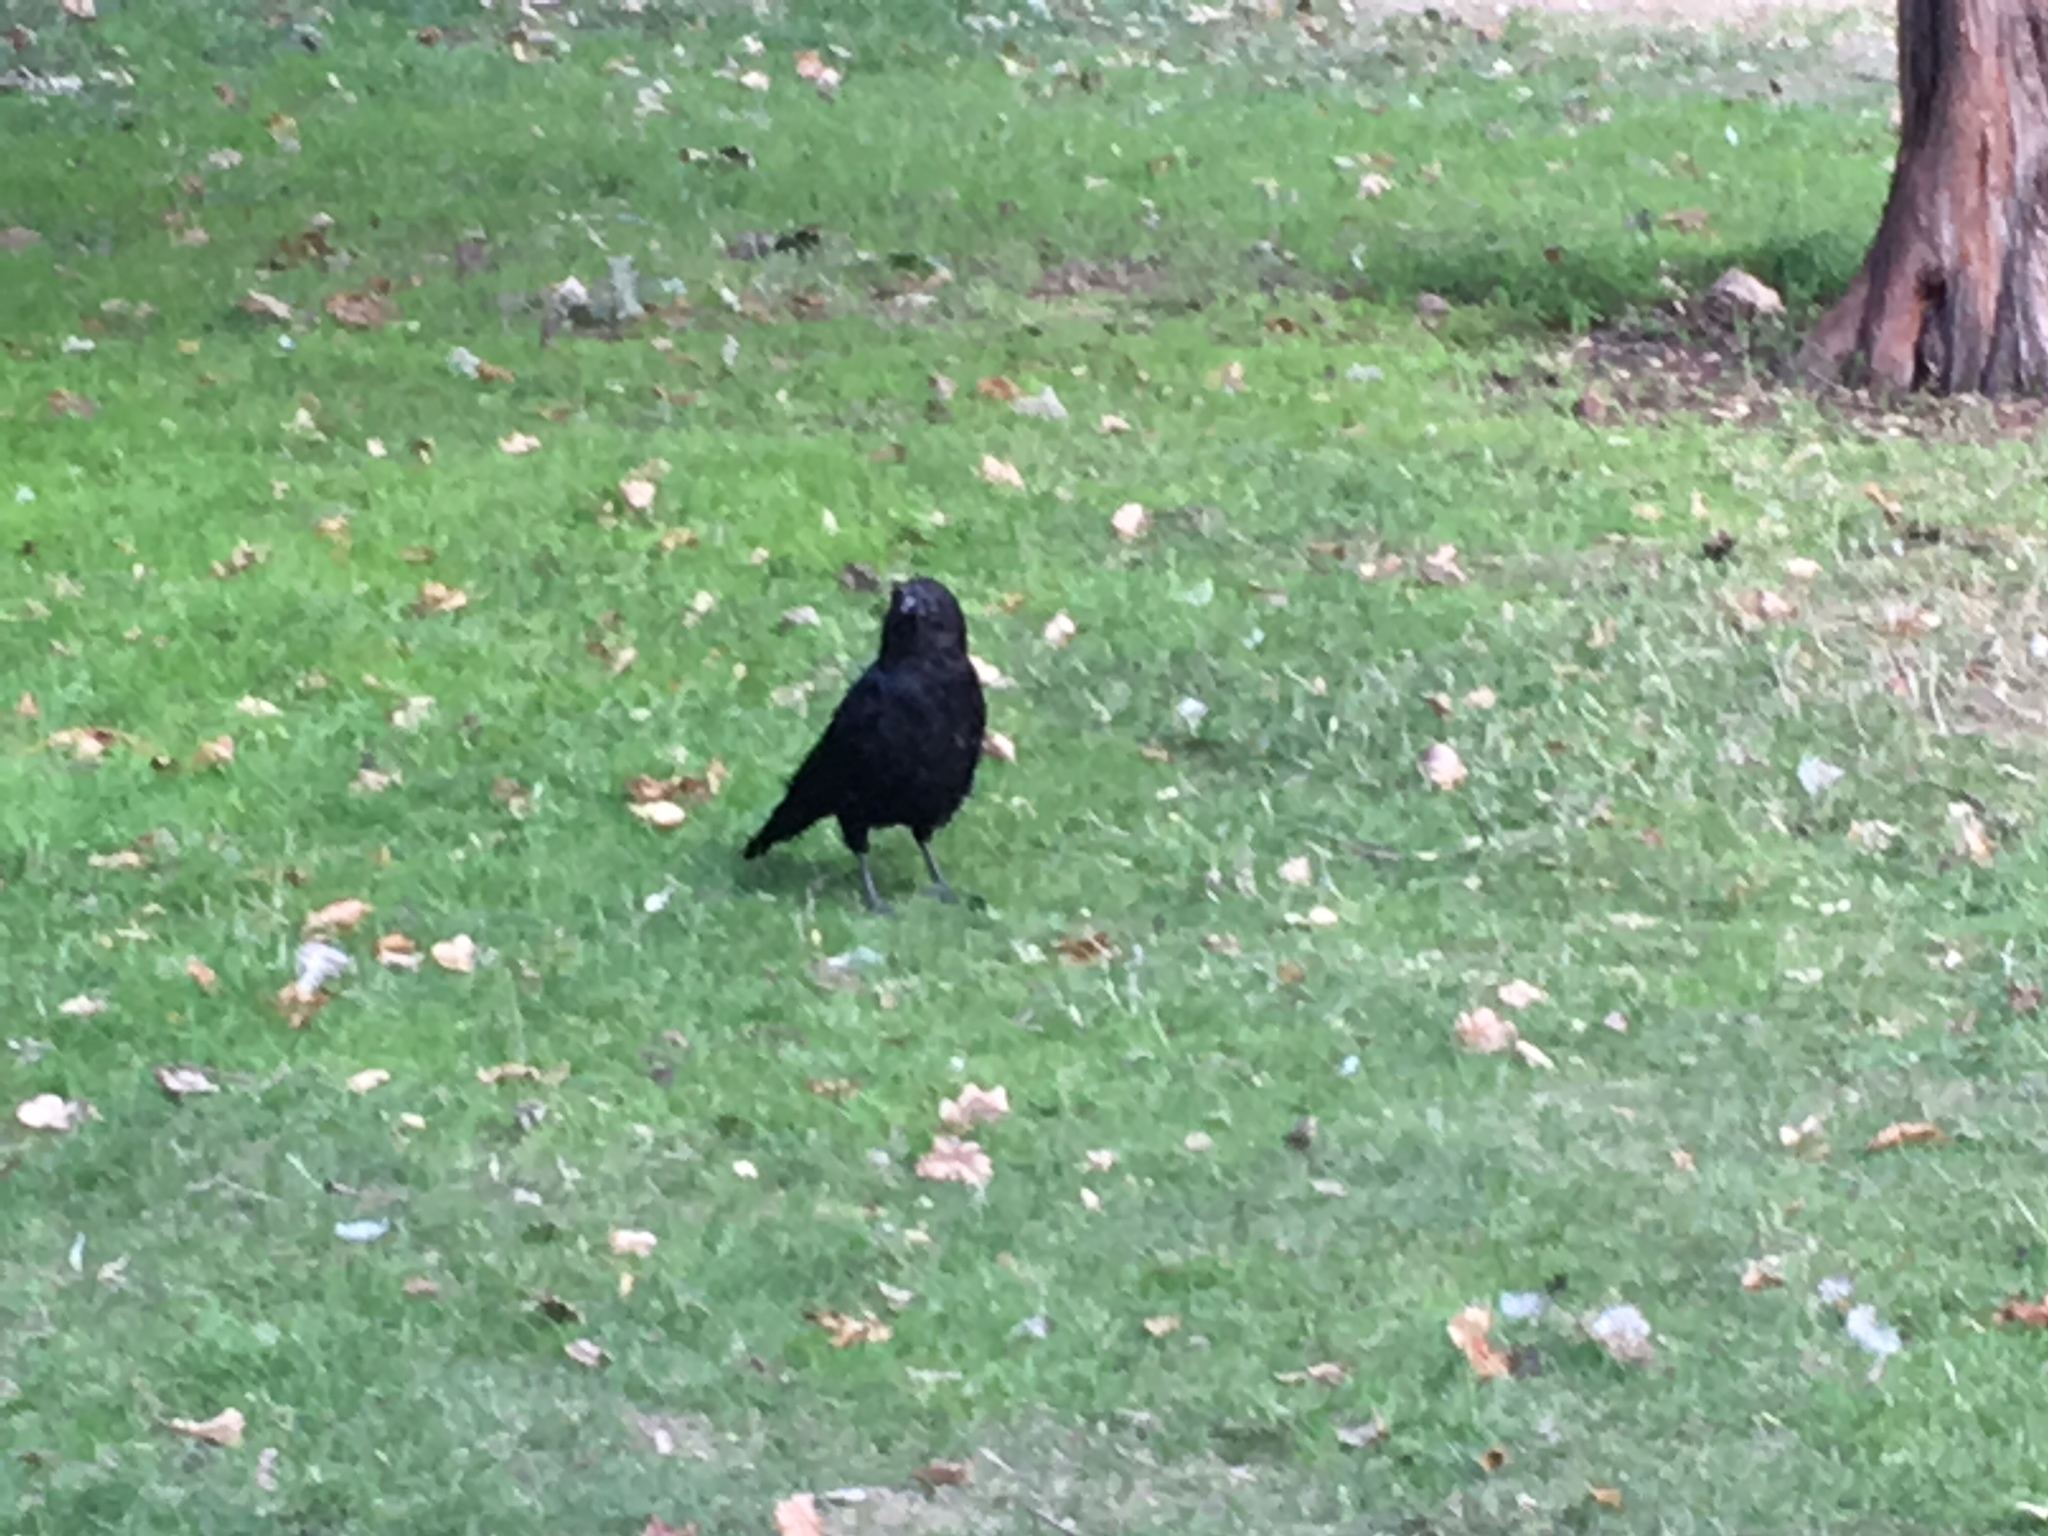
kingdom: Animalia
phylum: Chordata
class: Aves
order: Passeriformes
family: Corvidae
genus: Corvus
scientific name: Corvus corone
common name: Carrion crow
